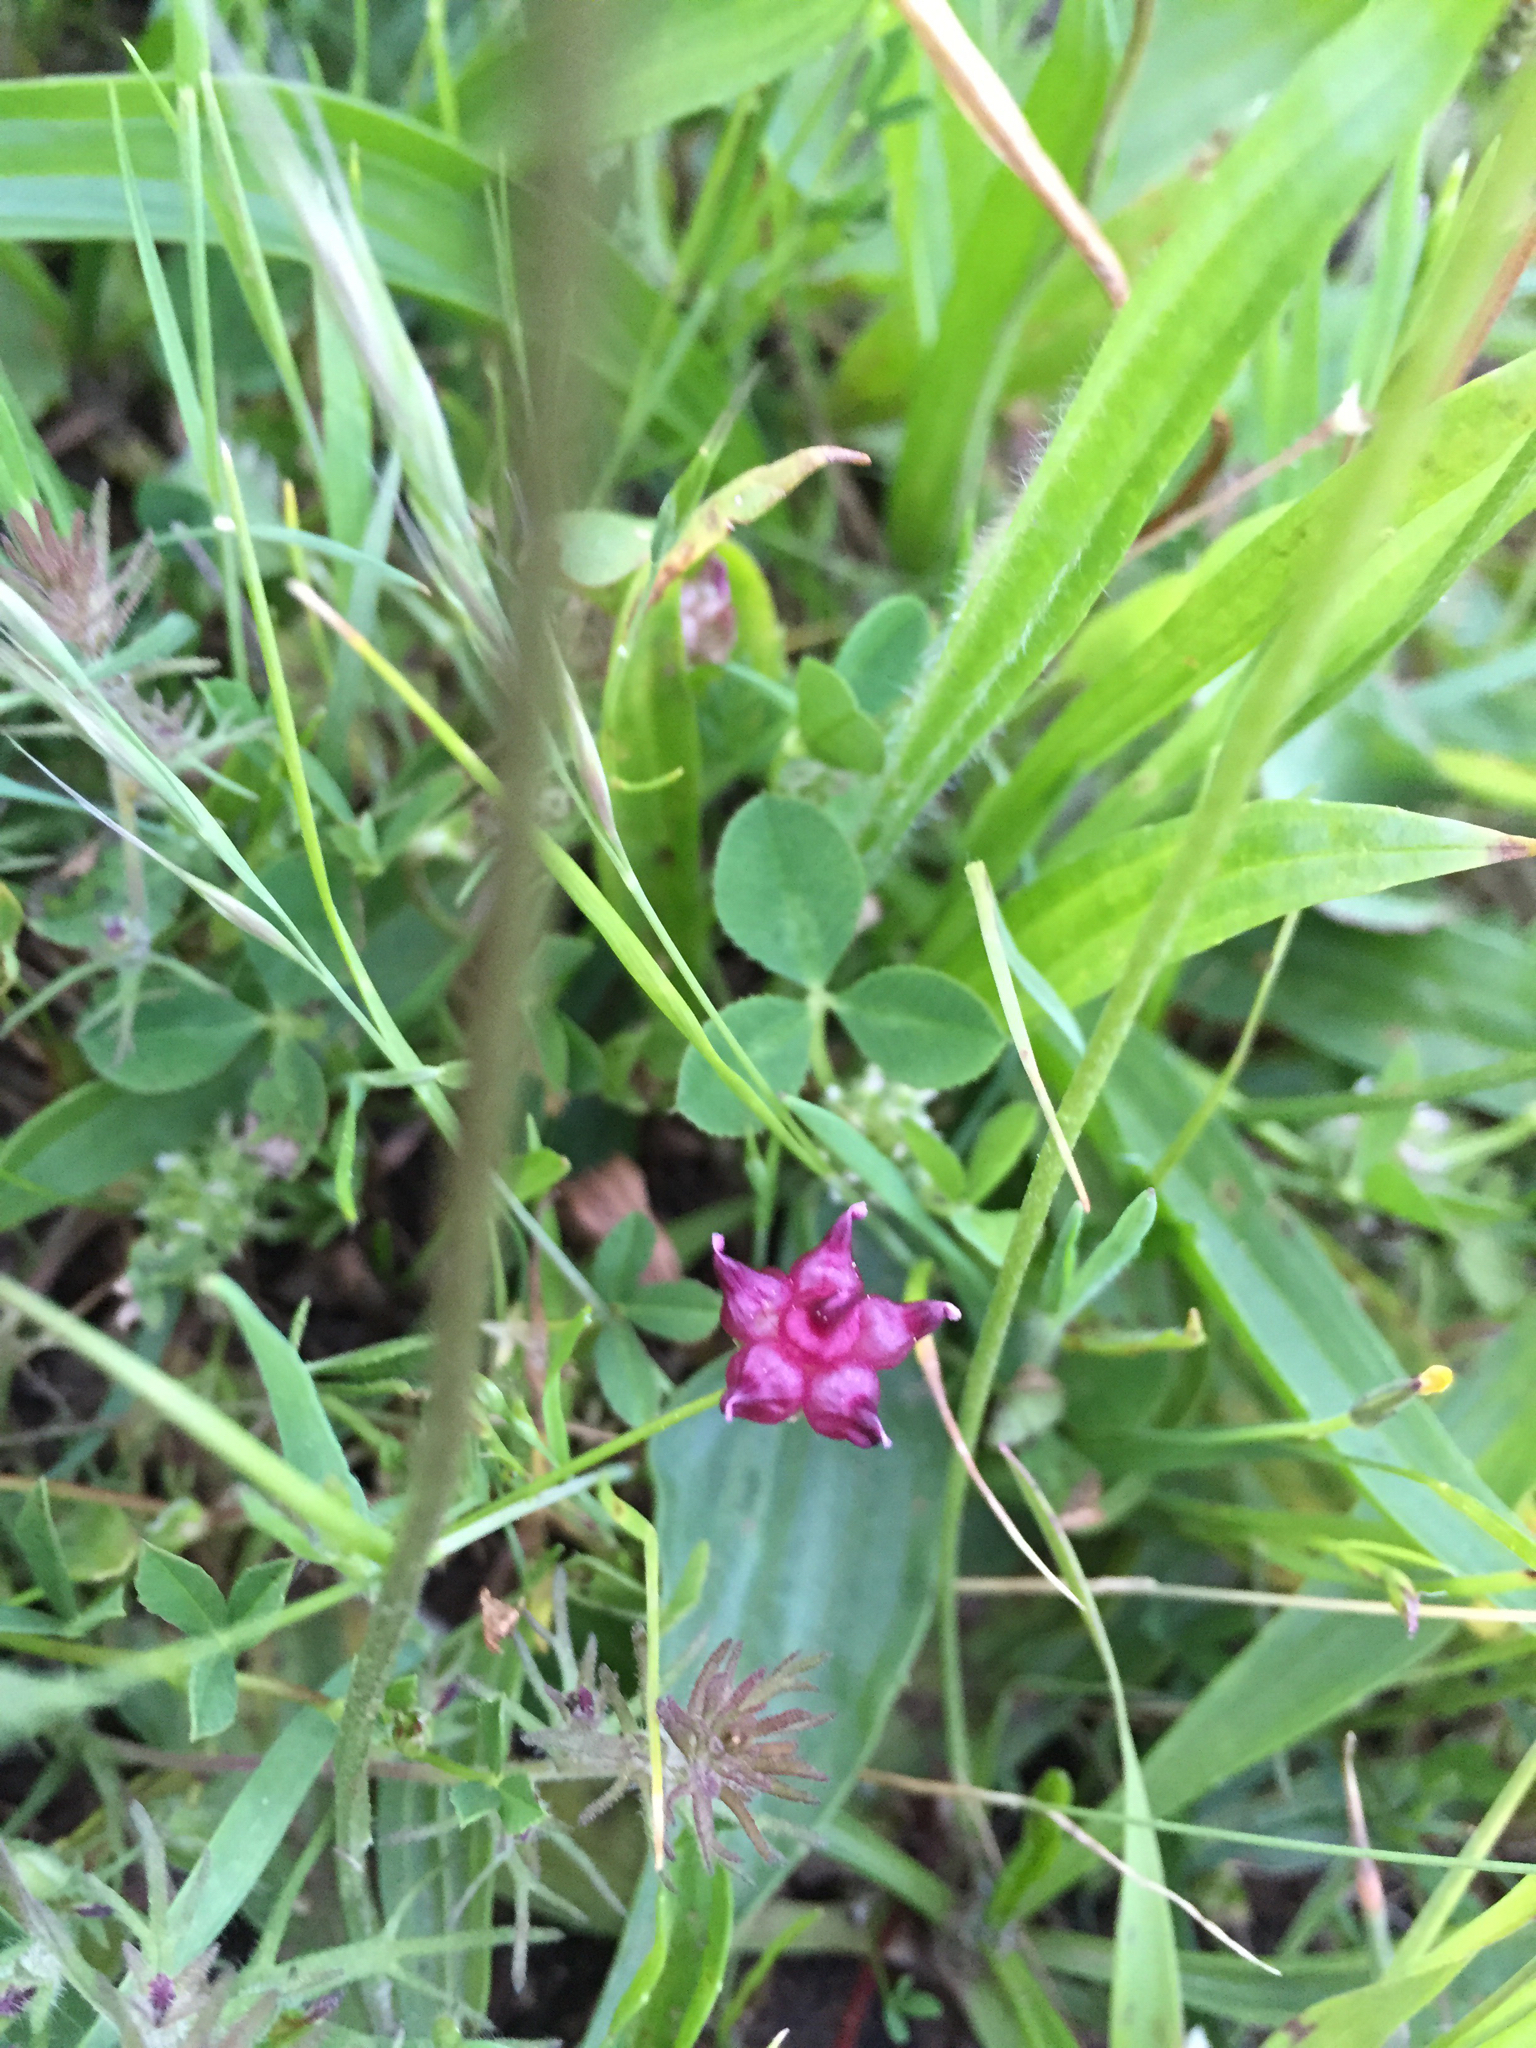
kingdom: Plantae
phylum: Tracheophyta
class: Magnoliopsida
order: Fabales
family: Fabaceae
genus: Trifolium
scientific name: Trifolium depauperatum
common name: Poverty clover
